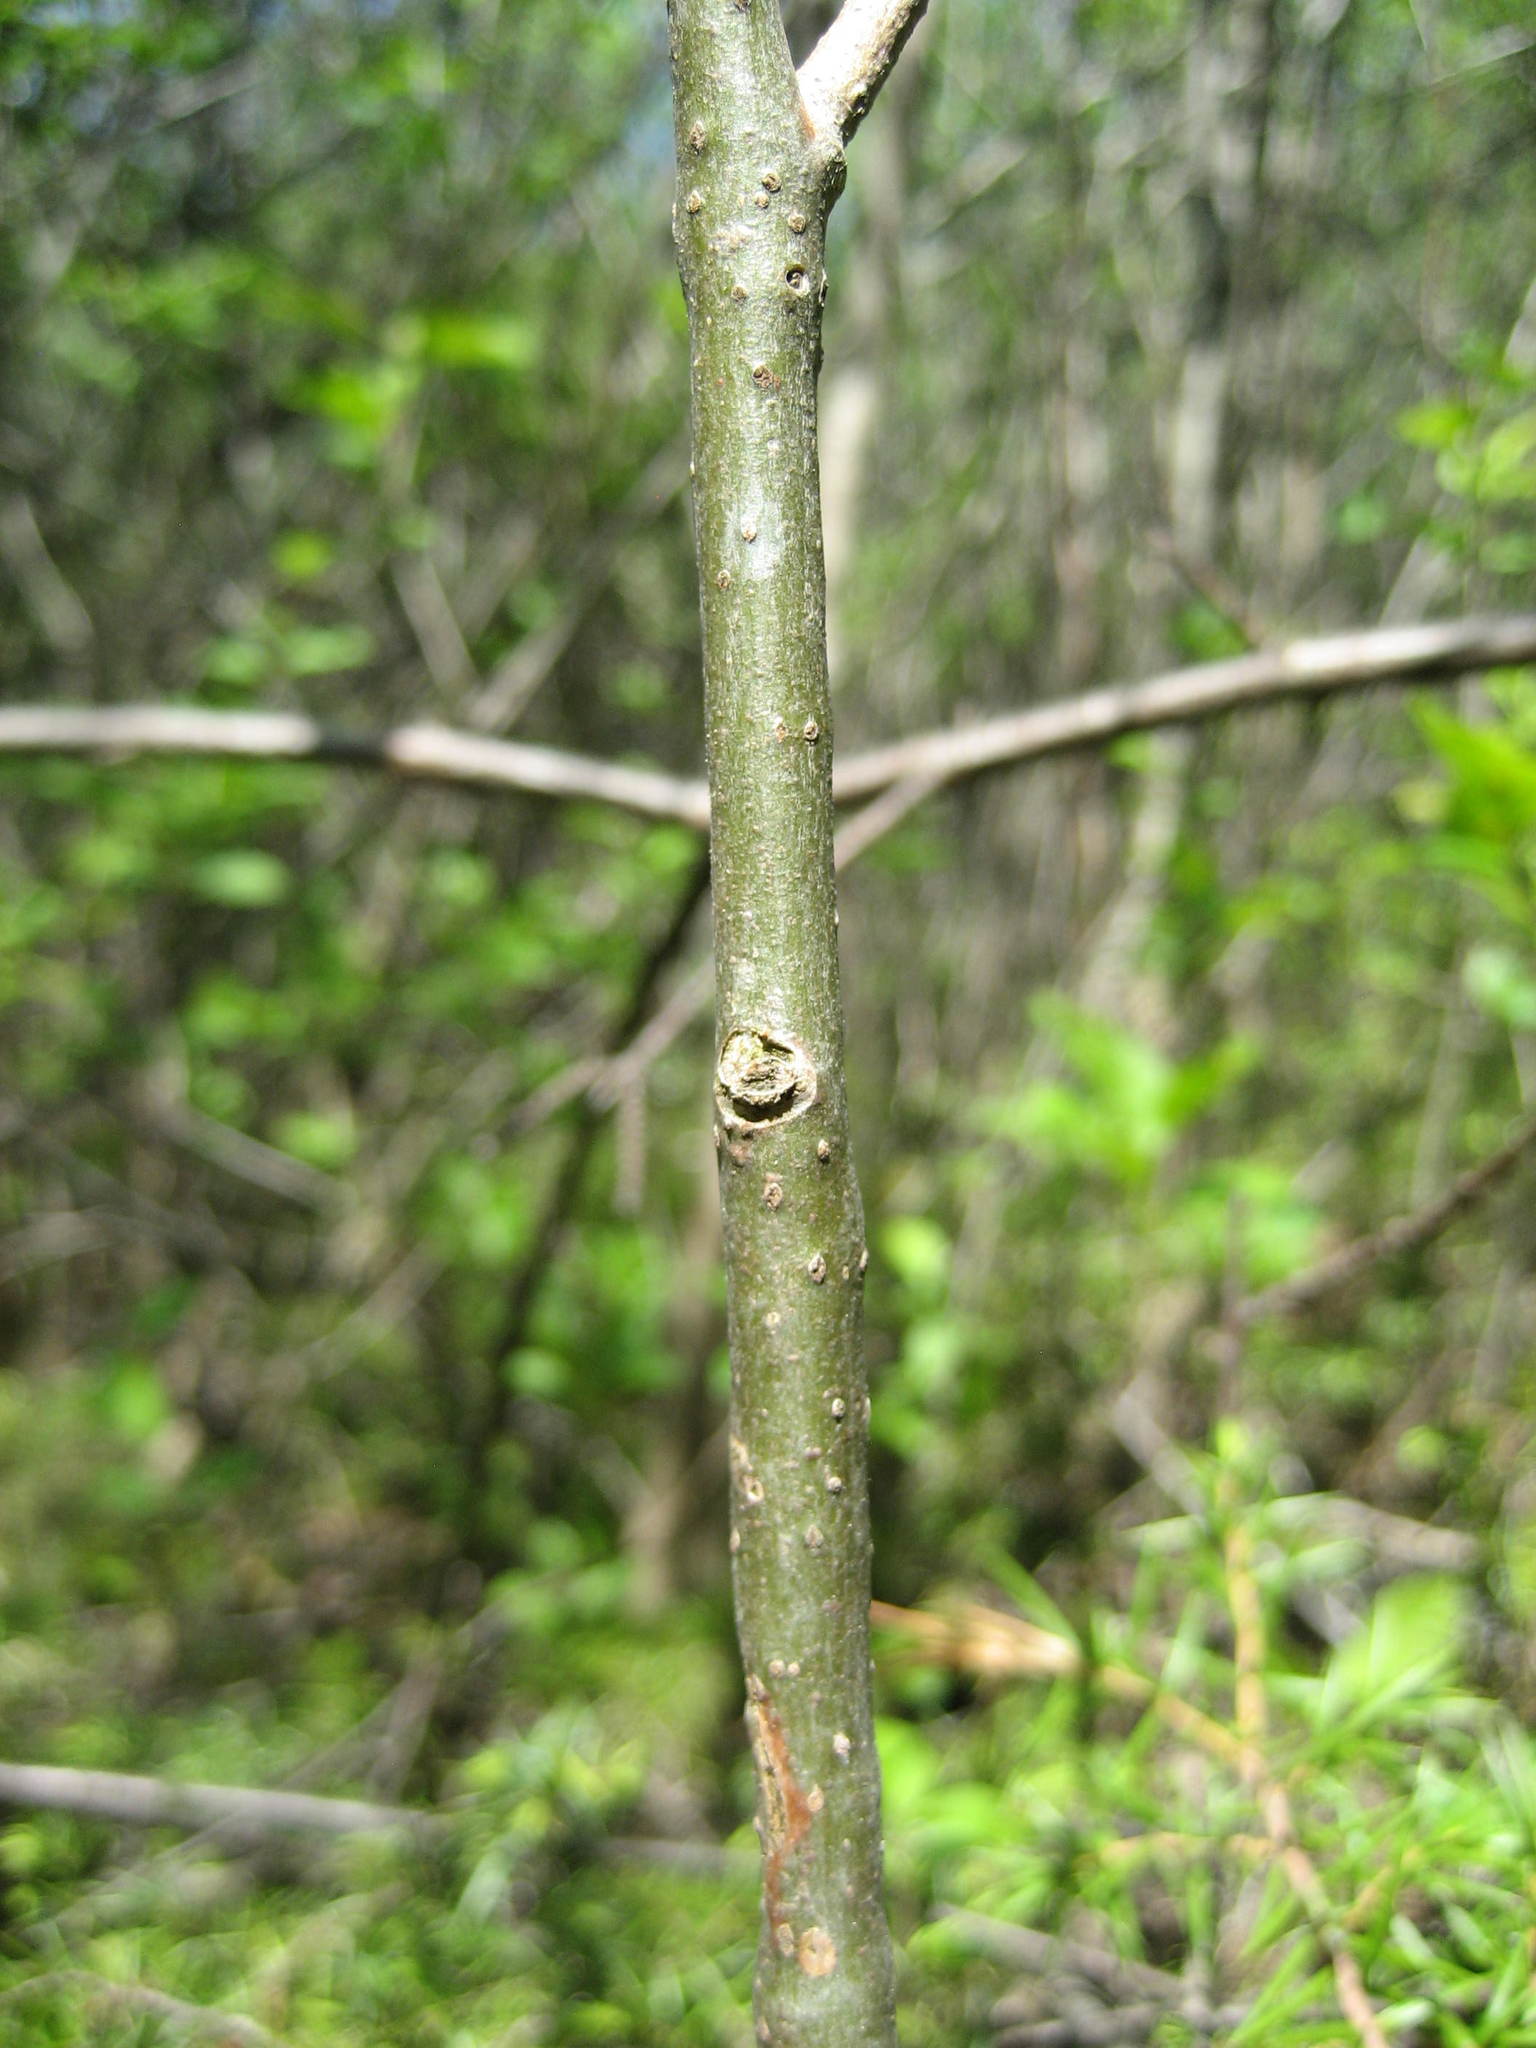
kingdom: Plantae
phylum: Tracheophyta
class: Magnoliopsida
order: Malpighiales
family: Salicaceae
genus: Populus
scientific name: Populus grandidentata
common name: Bigtooth aspen
